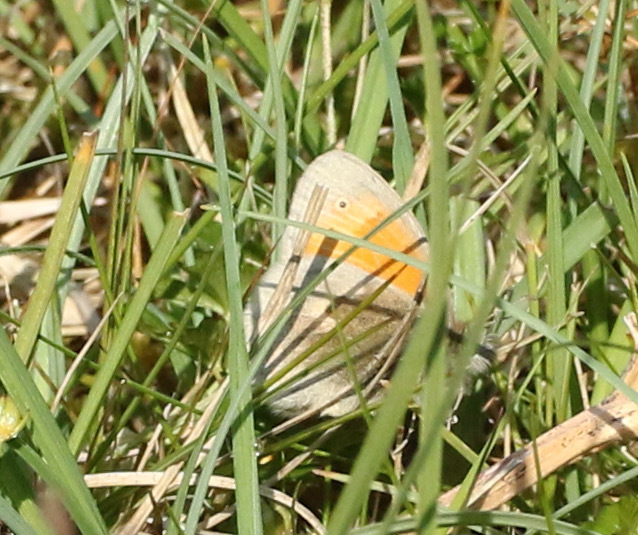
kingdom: Animalia
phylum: Arthropoda
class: Insecta
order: Lepidoptera
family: Nymphalidae
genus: Coenonympha
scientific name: Coenonympha pamphilus
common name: Small heath
